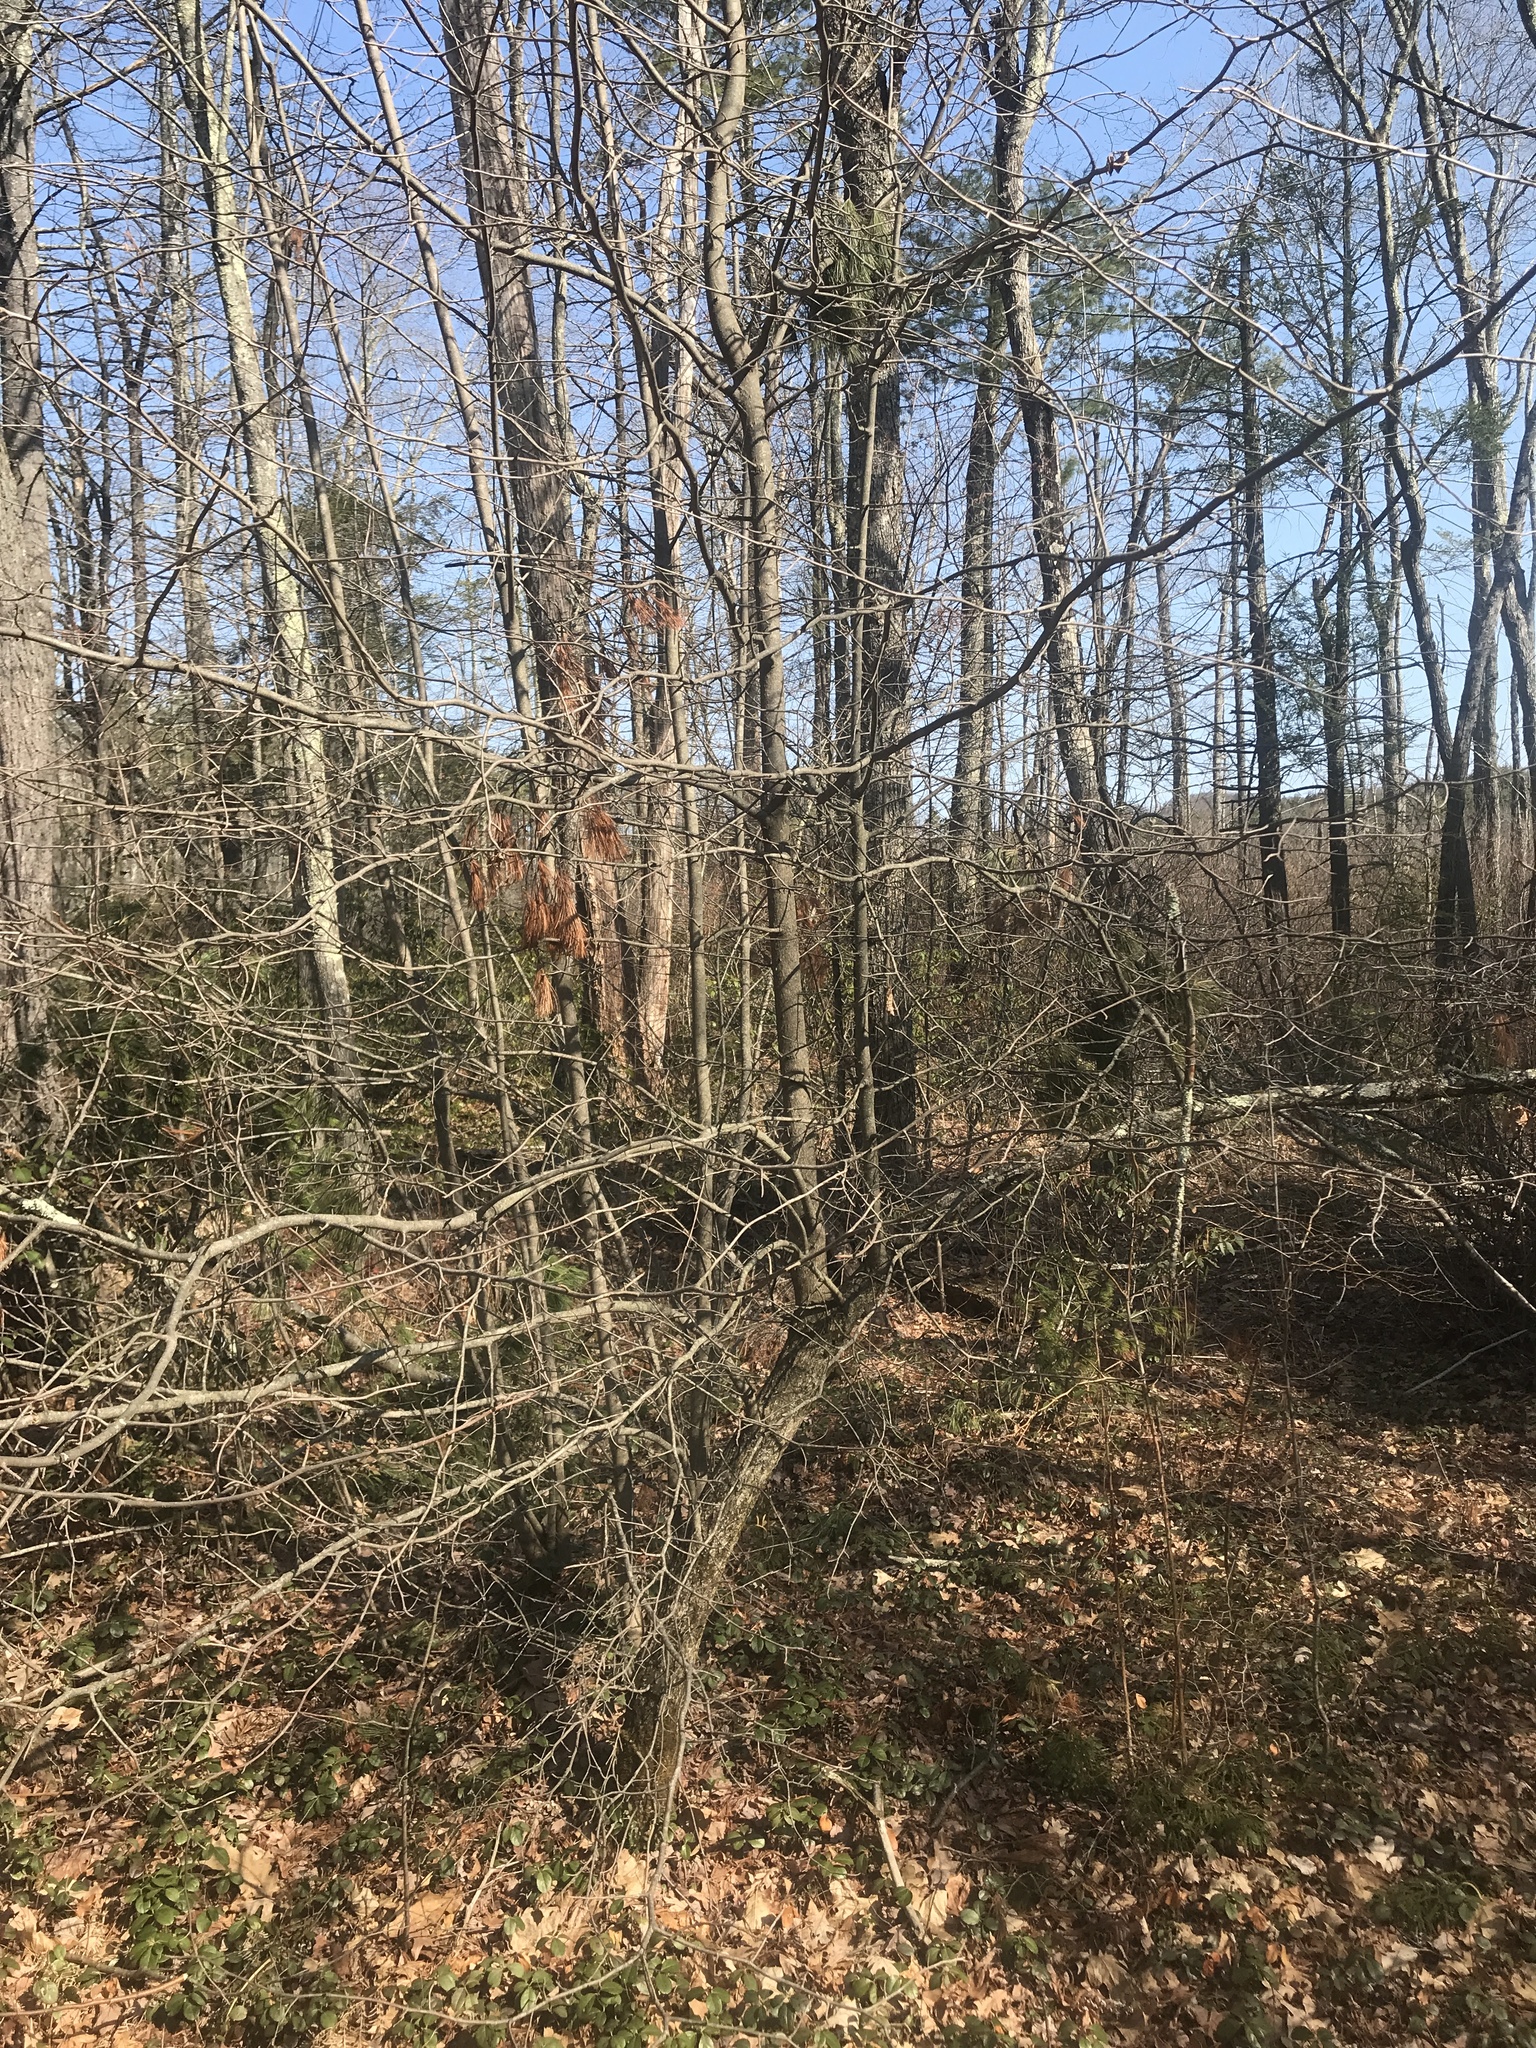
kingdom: Plantae
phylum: Tracheophyta
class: Magnoliopsida
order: Cornales
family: Nyssaceae
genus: Nyssa
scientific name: Nyssa sylvatica
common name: Black tupelo
